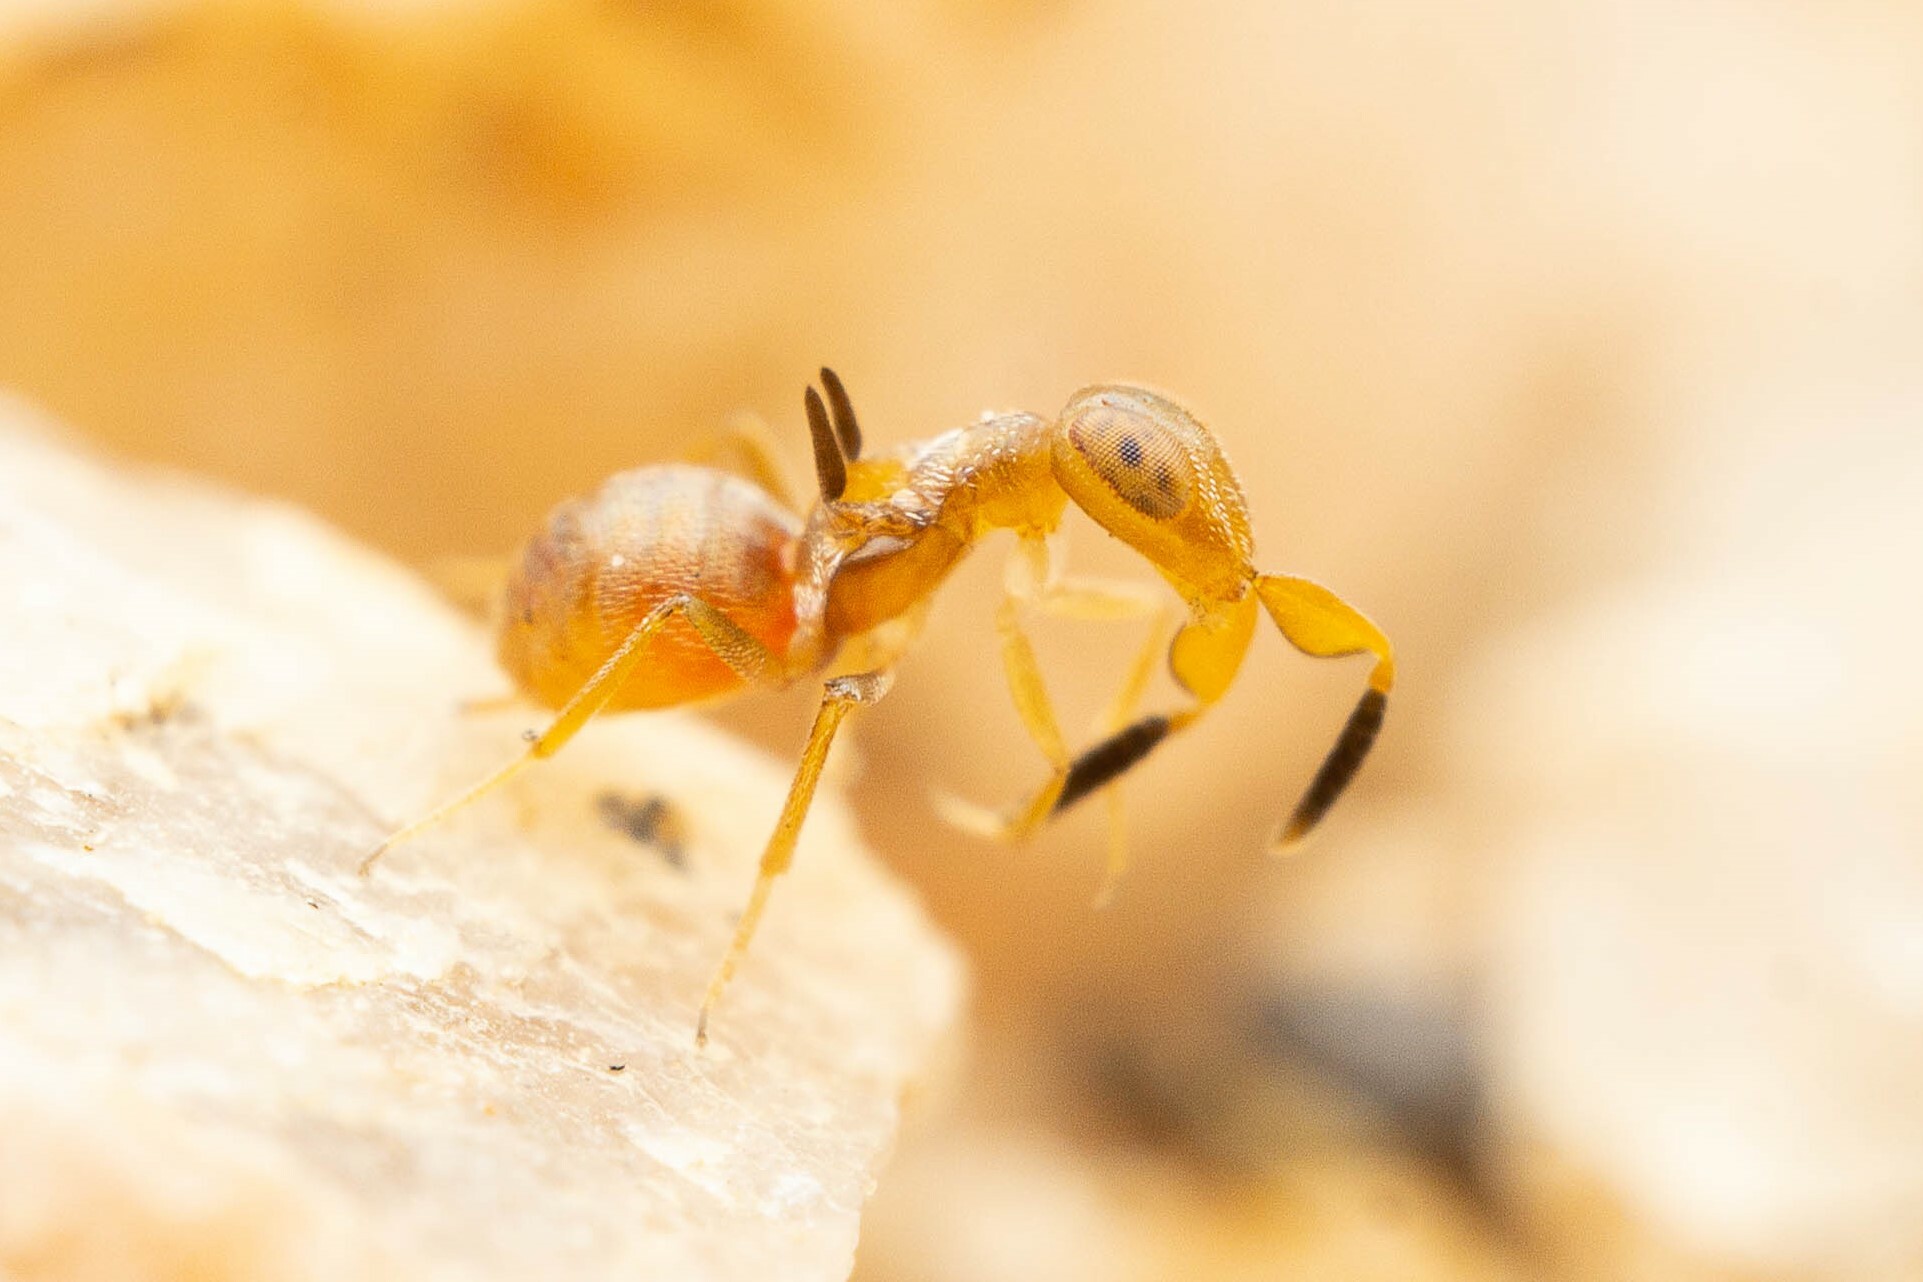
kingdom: Animalia
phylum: Arthropoda
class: Insecta
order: Hymenoptera
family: Encyrtidae
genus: Formicencyrtus
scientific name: Formicencyrtus thoreauini
